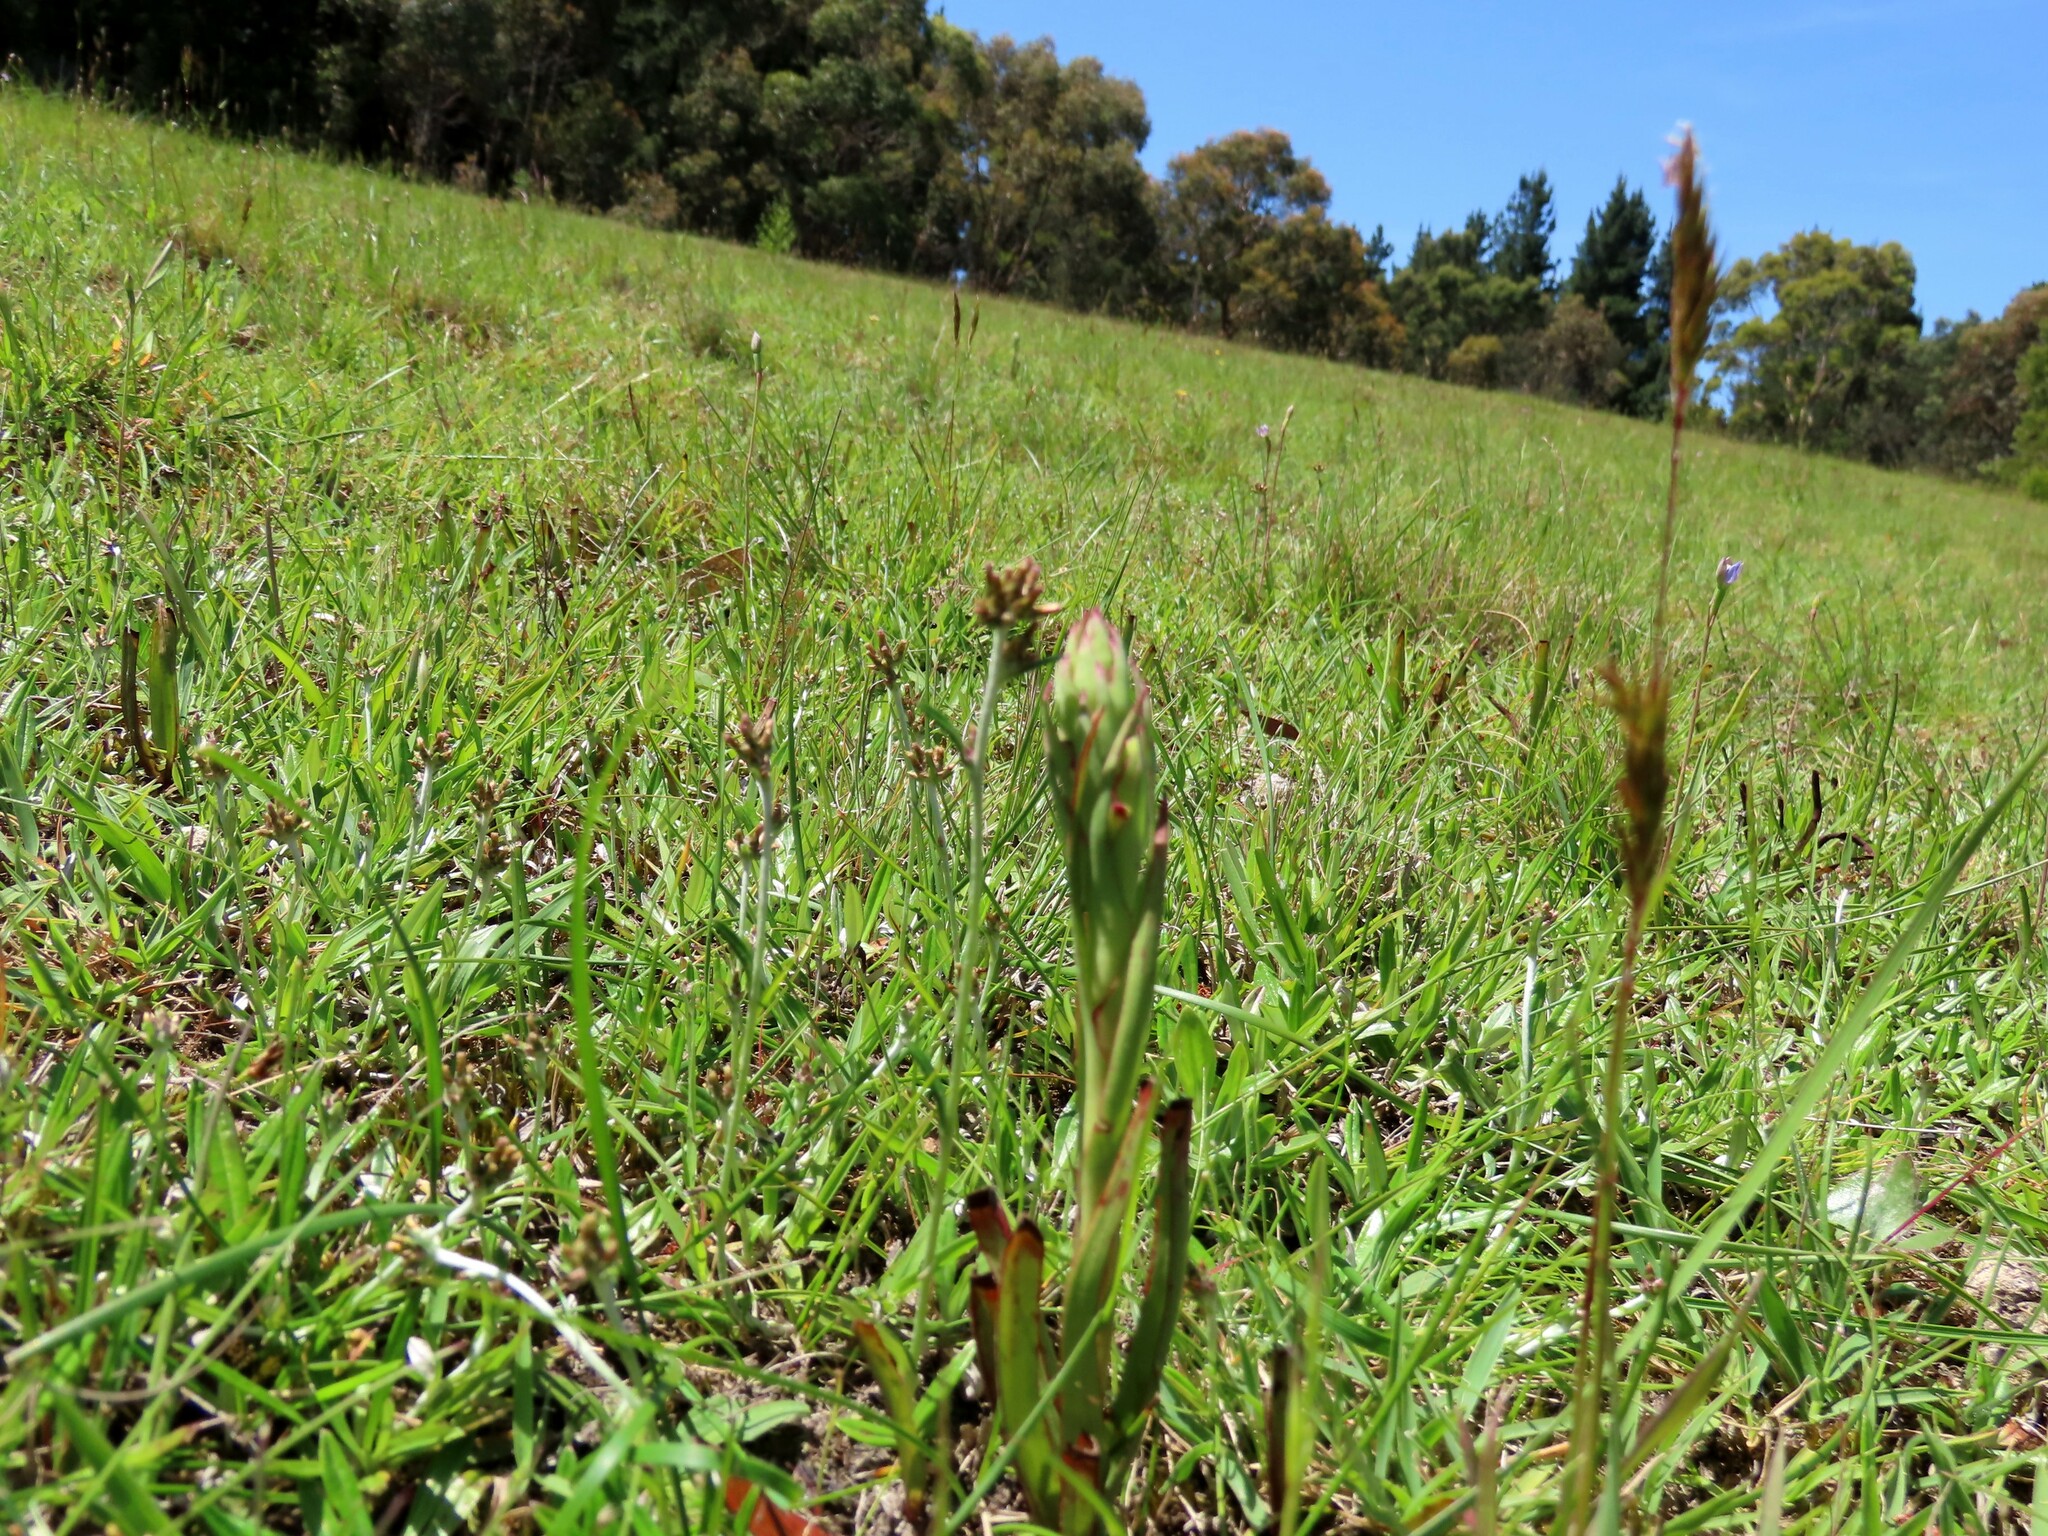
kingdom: Plantae
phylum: Tracheophyta
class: Liliopsida
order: Asparagales
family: Orchidaceae
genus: Disa
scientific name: Disa bracteata
